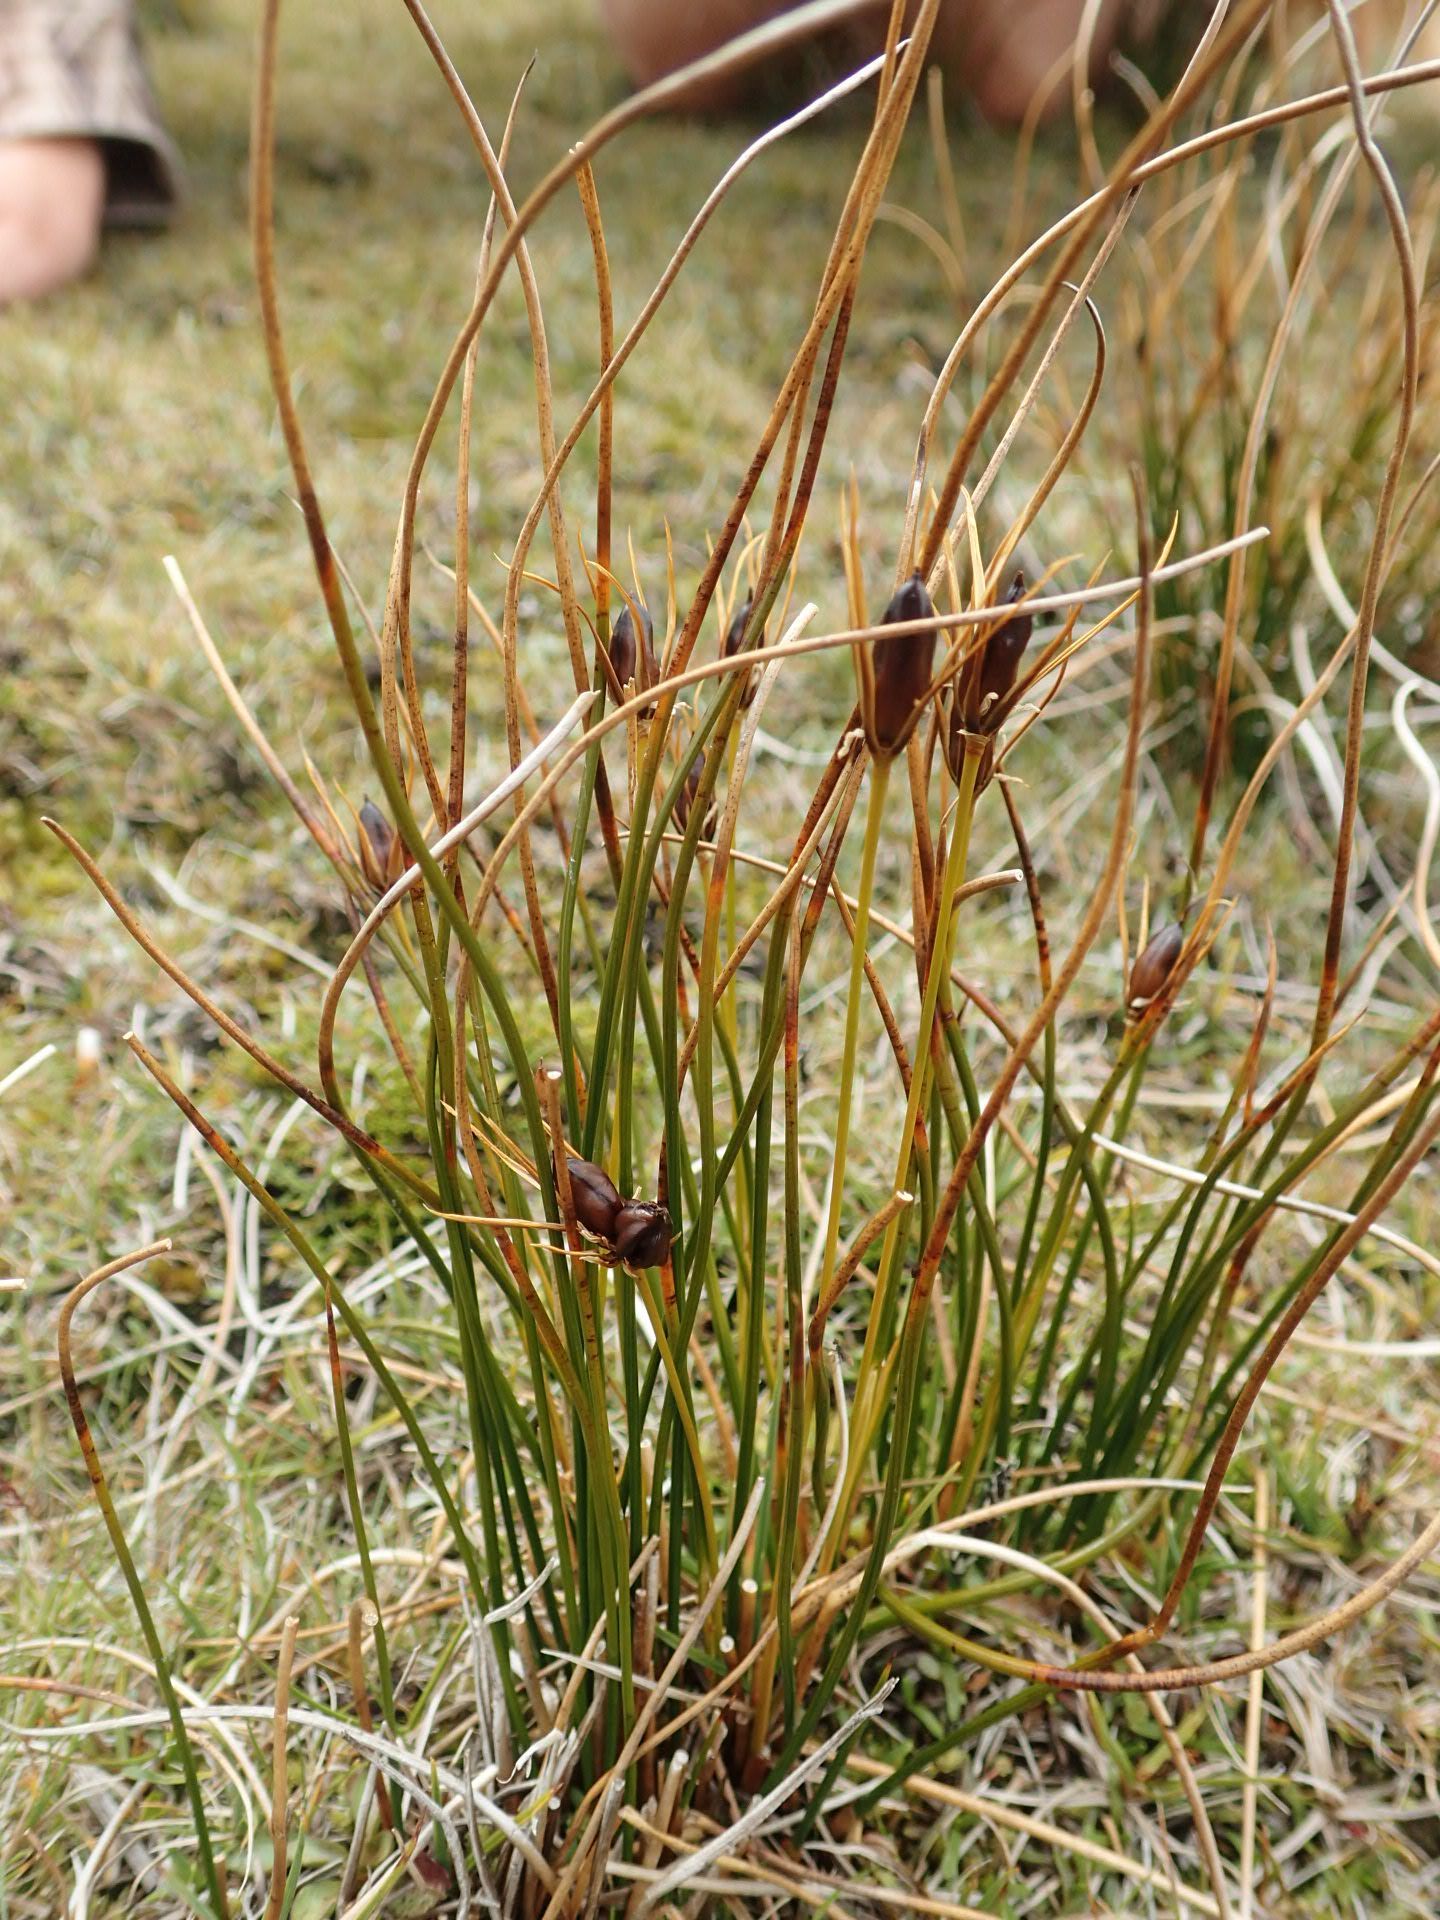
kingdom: Plantae
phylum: Tracheophyta
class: Liliopsida
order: Poales
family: Juncaceae
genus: Marsippospermum
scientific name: Marsippospermum gracile
